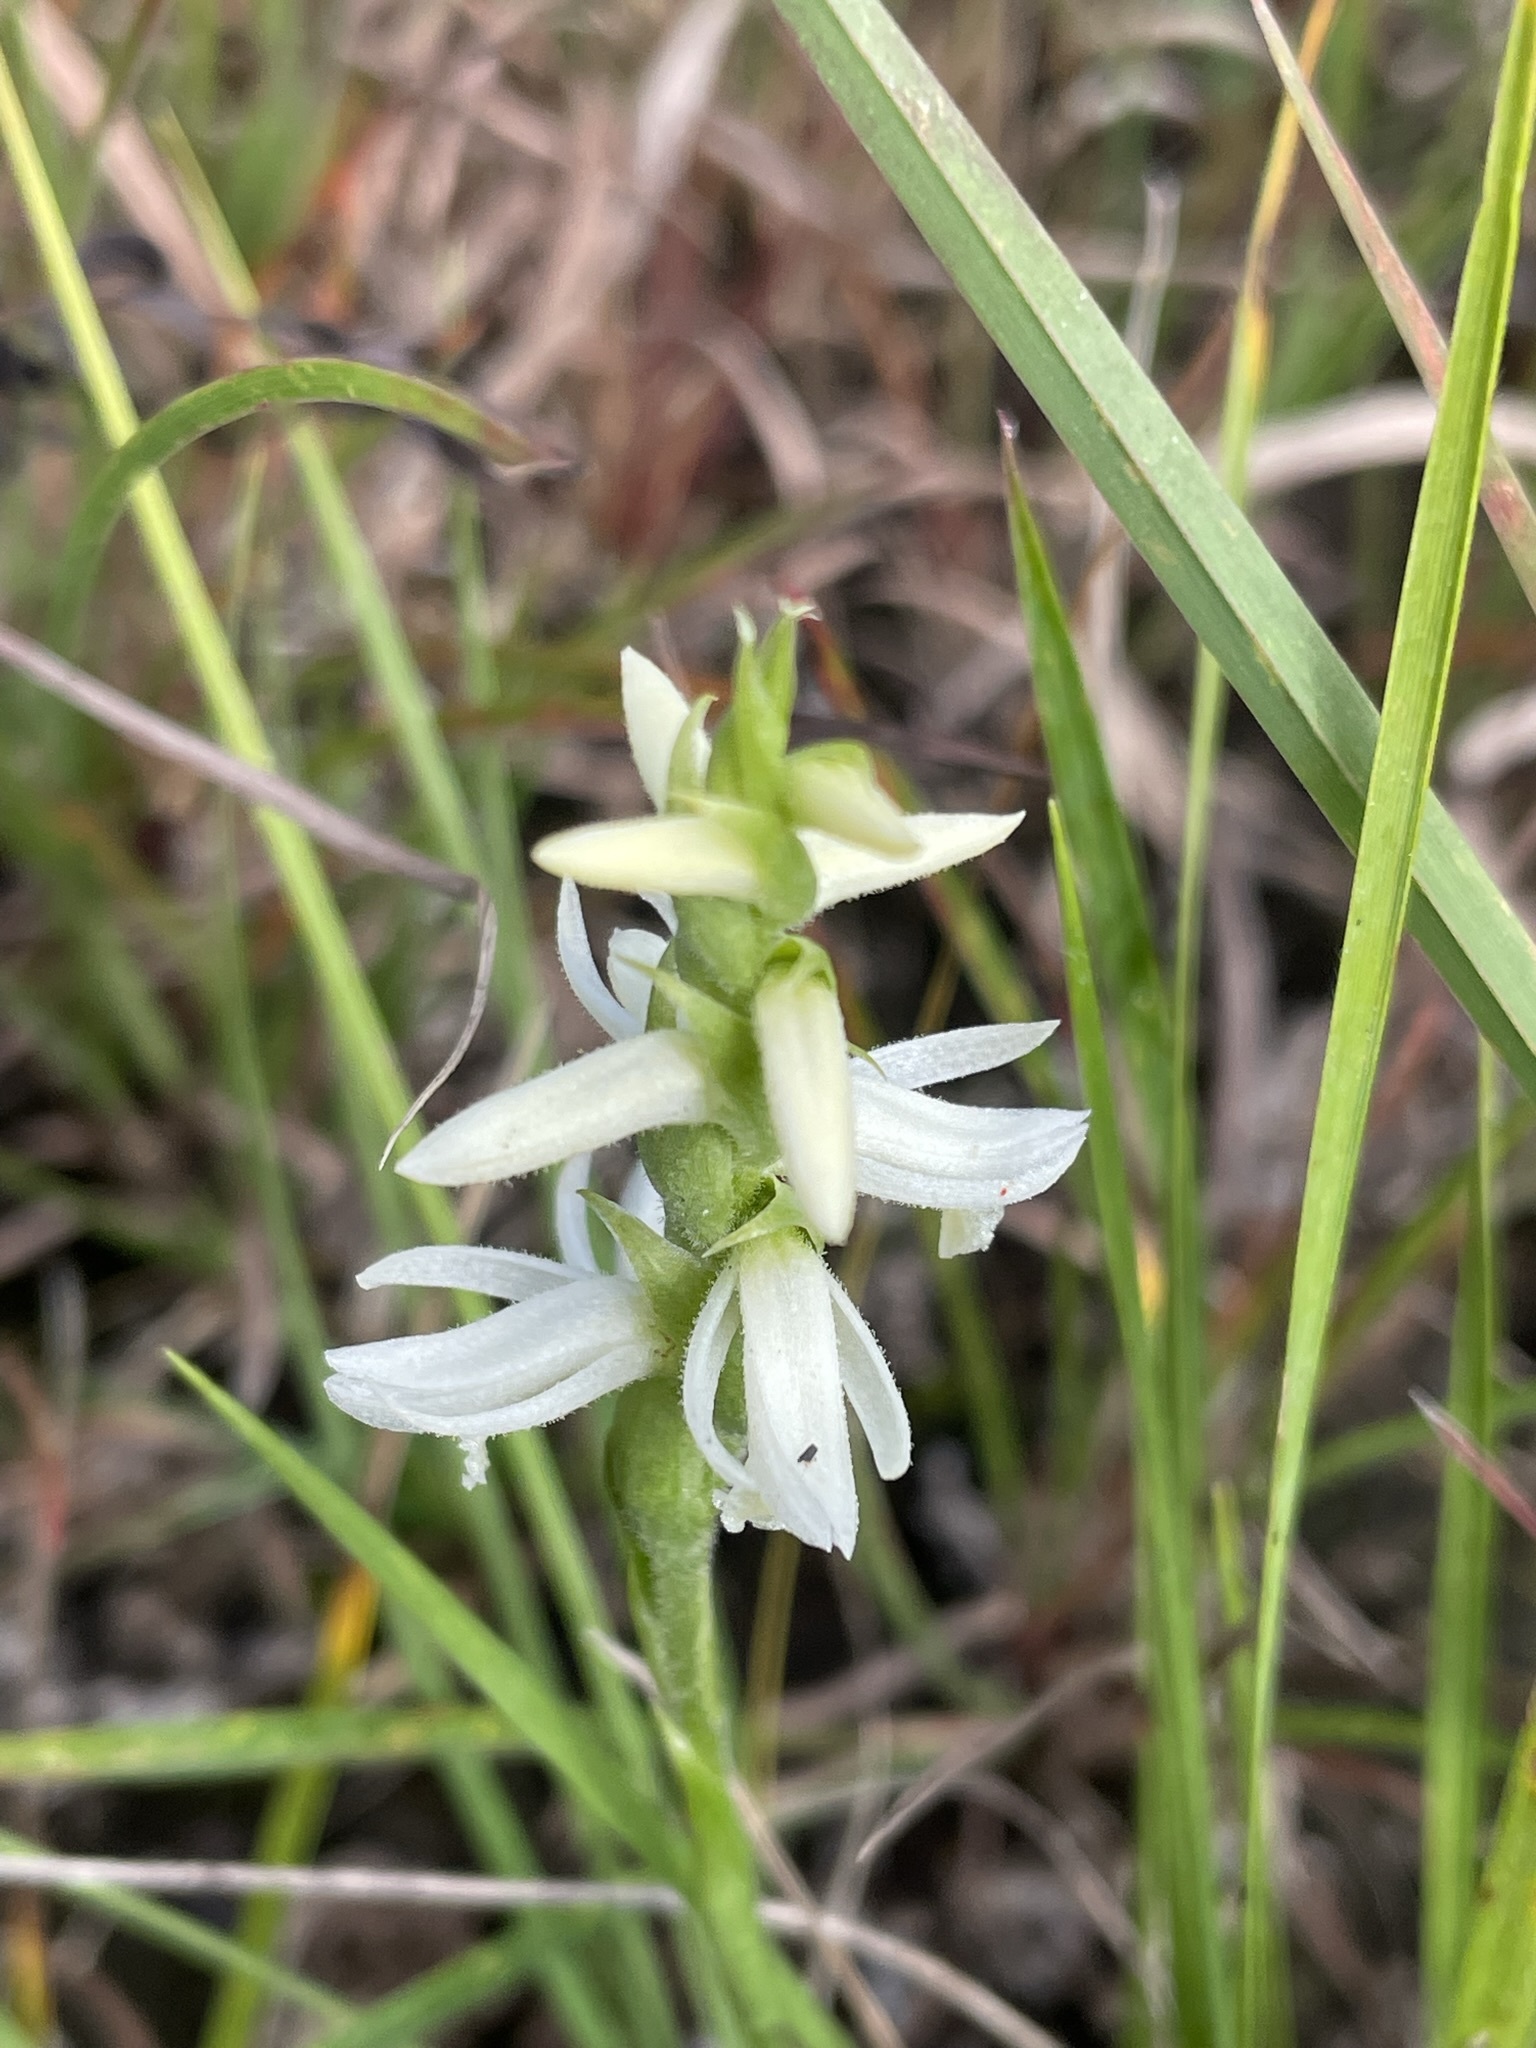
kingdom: Plantae
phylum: Tracheophyta
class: Liliopsida
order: Asparagales
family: Orchidaceae
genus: Spiranthes
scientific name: Spiranthes magnicamporum
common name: Great plains ladies'-tresses
